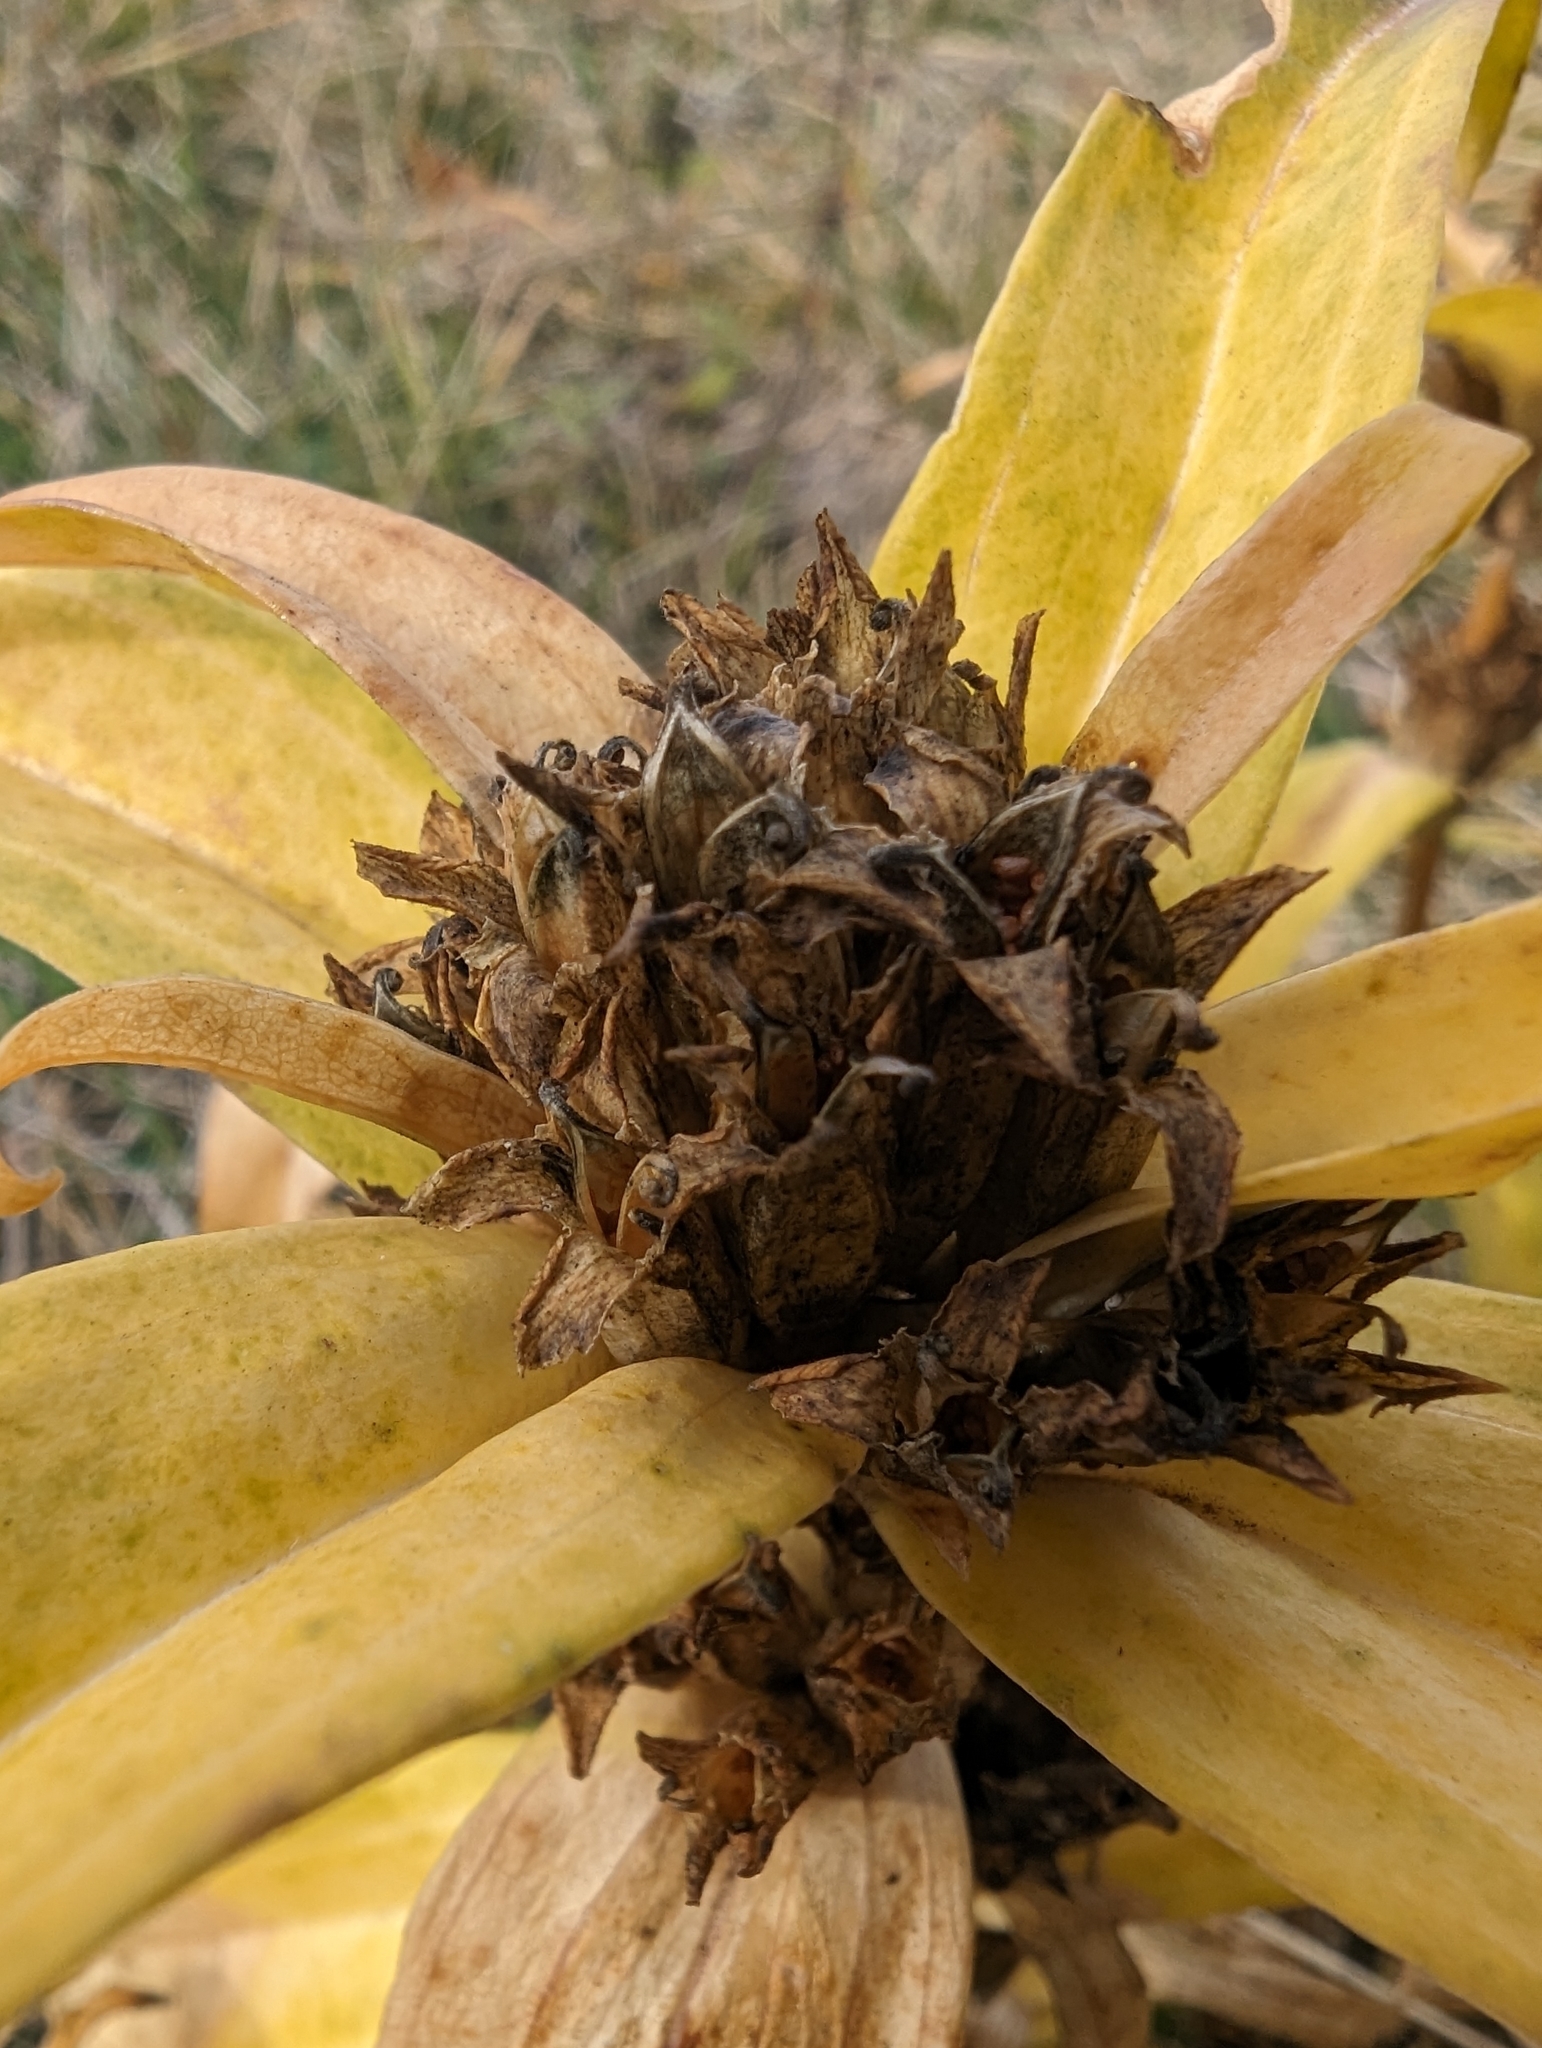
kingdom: Plantae
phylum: Tracheophyta
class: Magnoliopsida
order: Gentianales
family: Gentianaceae
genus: Gentiana
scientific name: Gentiana cruciata
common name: Cross gentian
